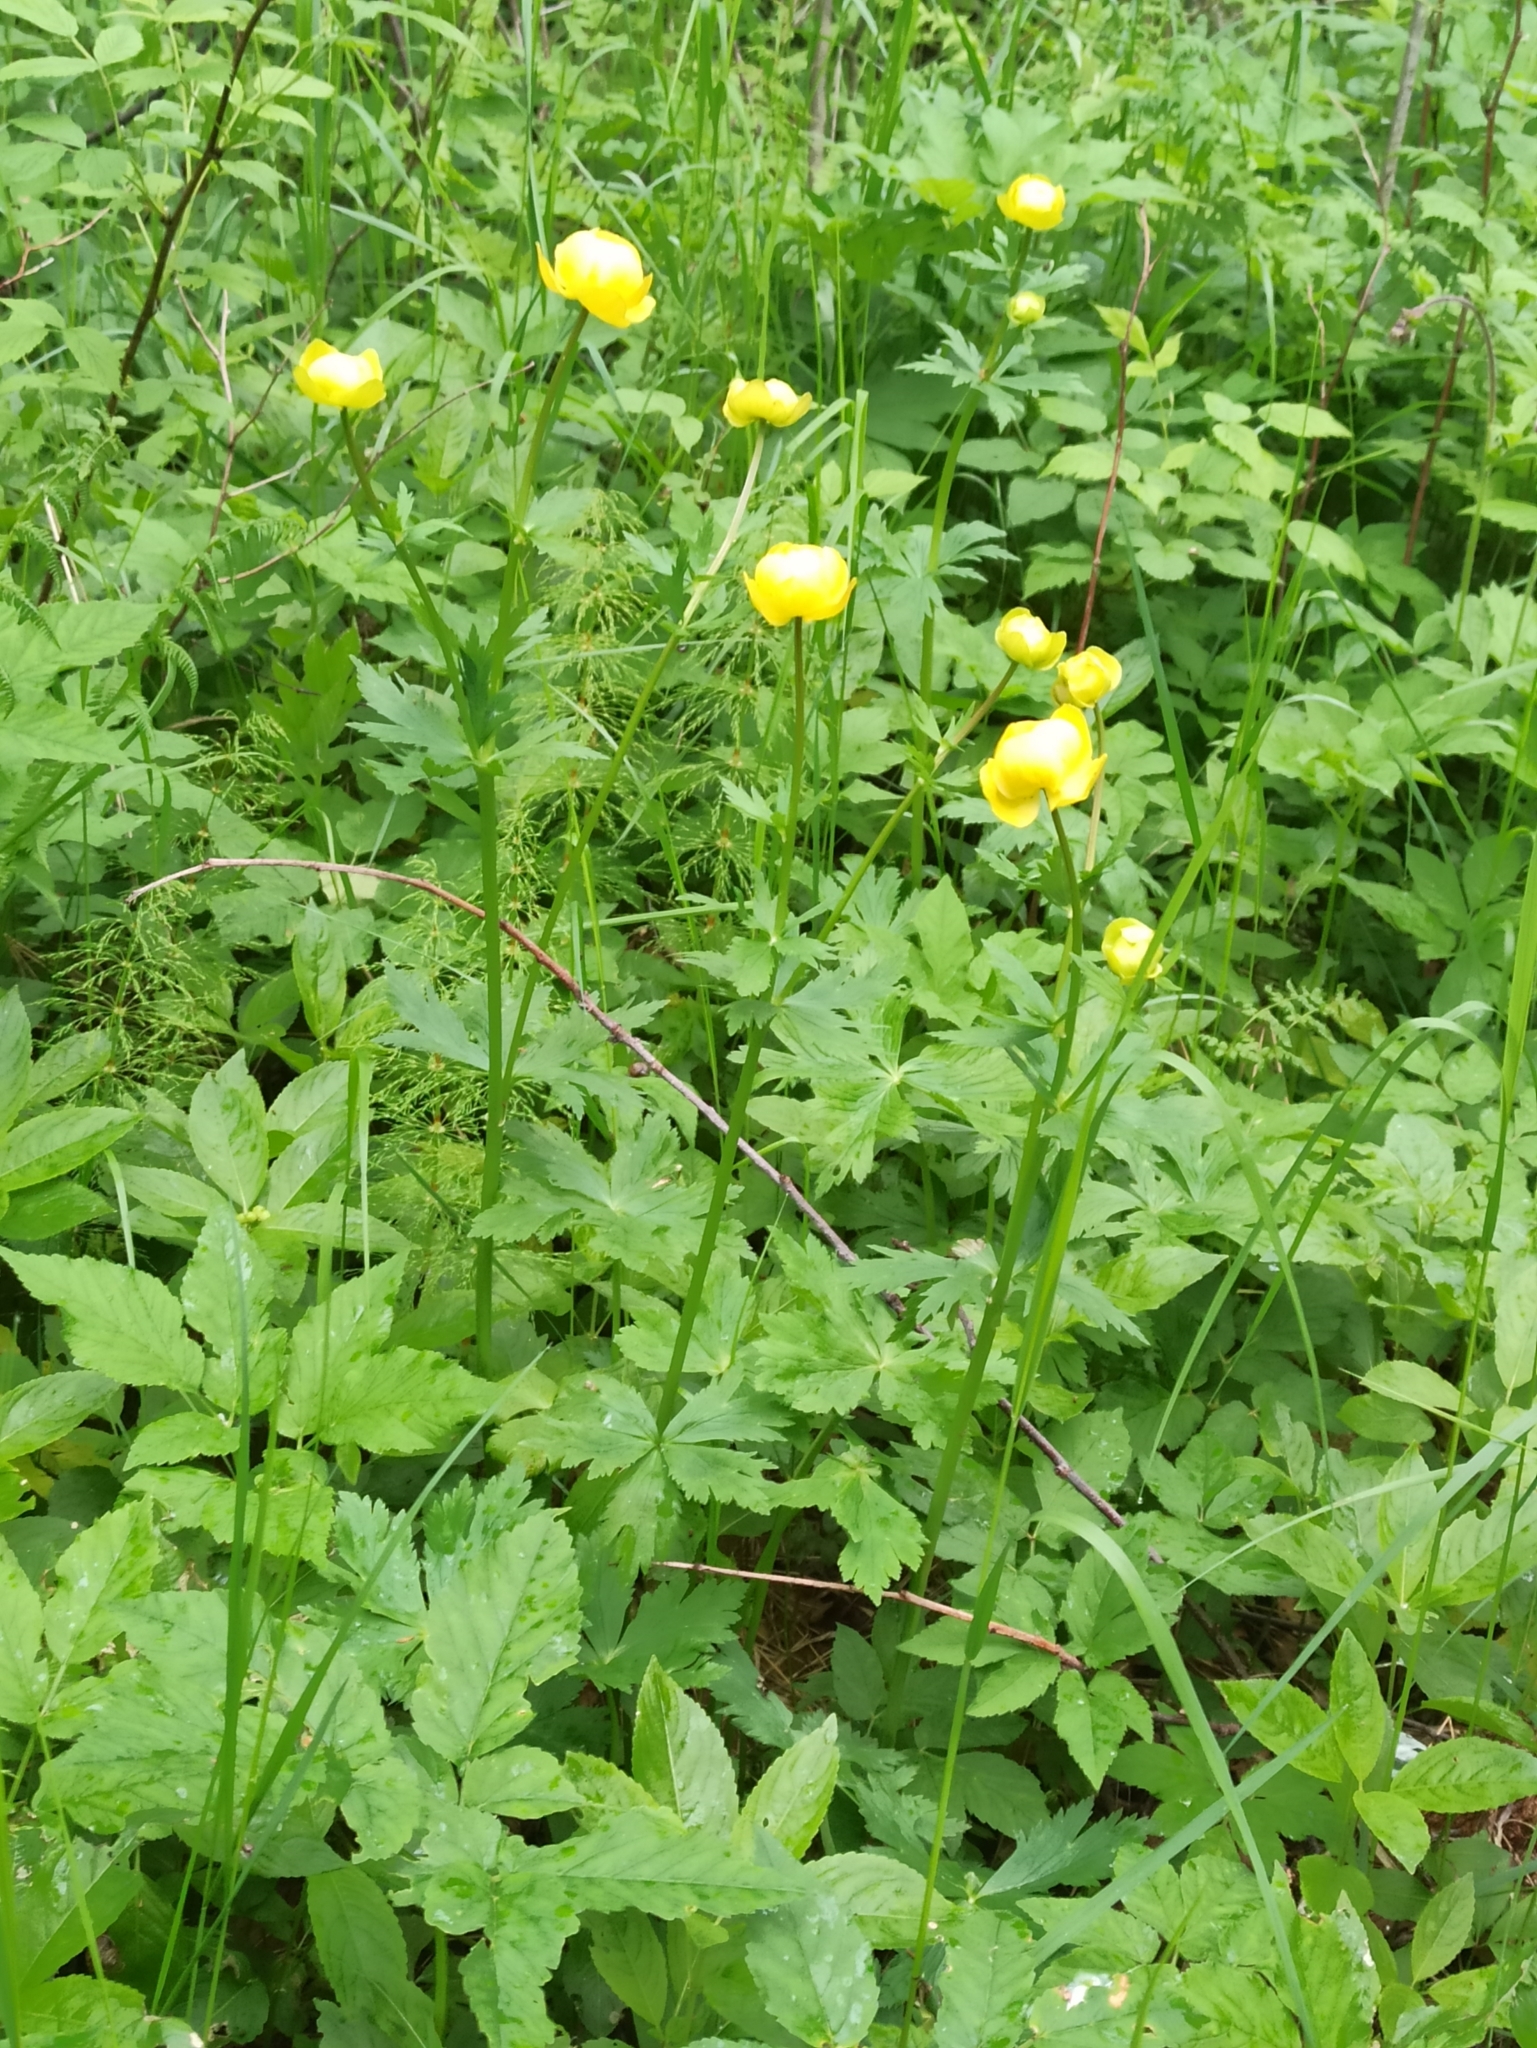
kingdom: Plantae
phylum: Tracheophyta
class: Magnoliopsida
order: Ranunculales
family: Ranunculaceae
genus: Trollius
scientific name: Trollius europaeus
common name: European globeflower
